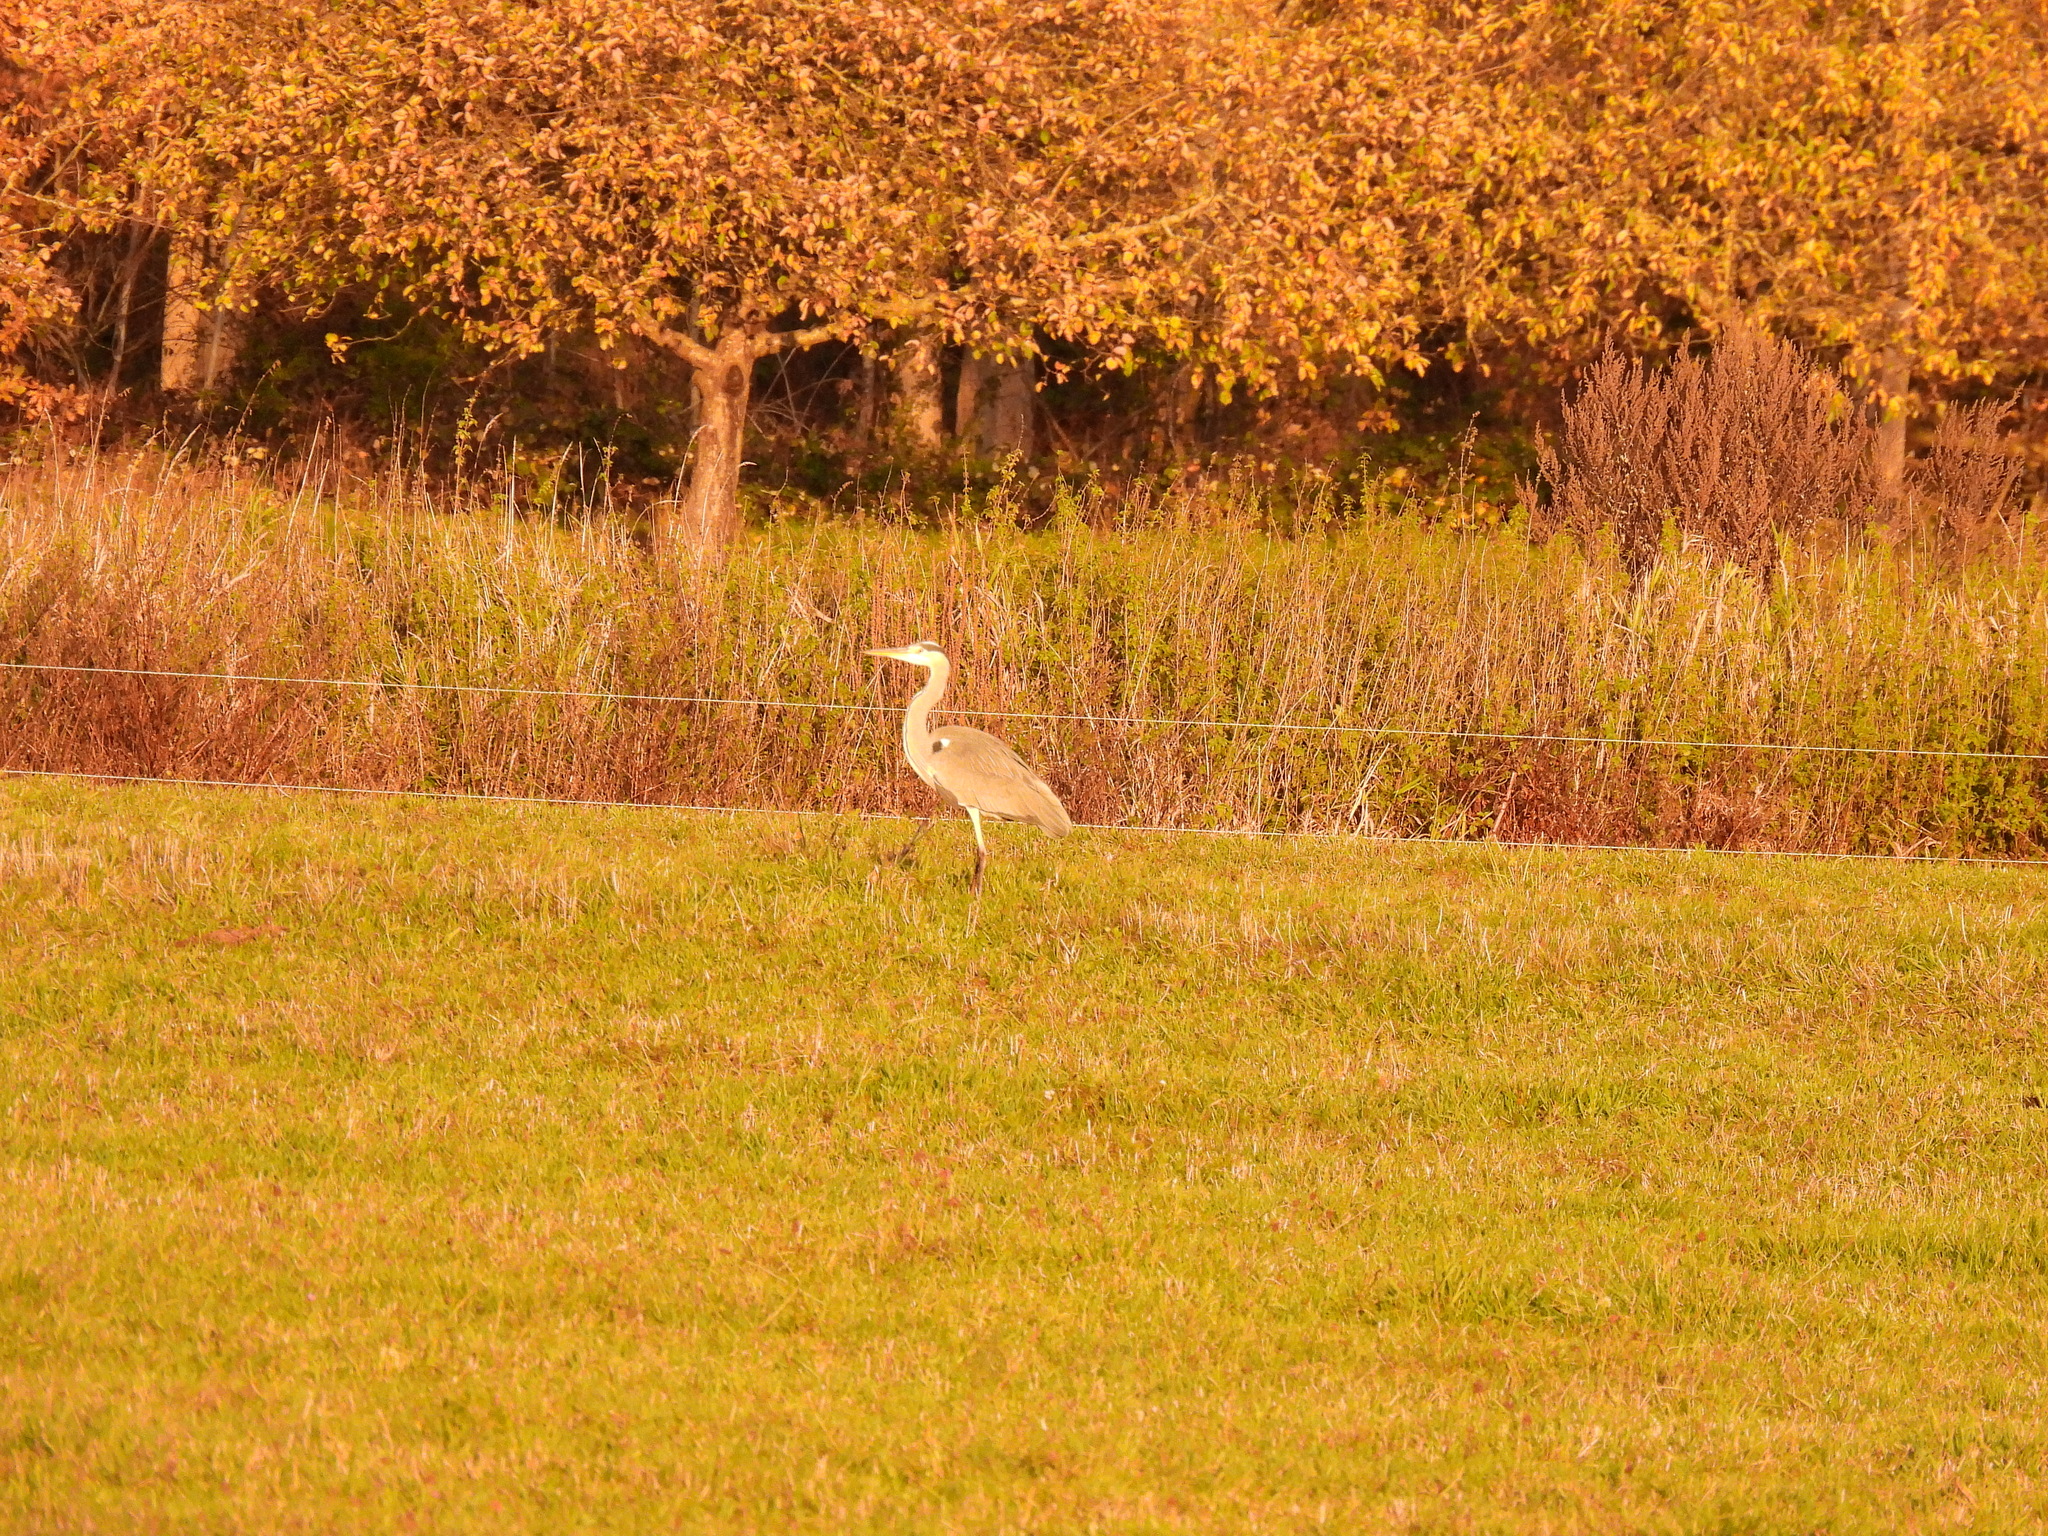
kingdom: Animalia
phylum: Chordata
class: Aves
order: Pelecaniformes
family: Ardeidae
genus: Ardea
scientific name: Ardea cinerea
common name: Grey heron
